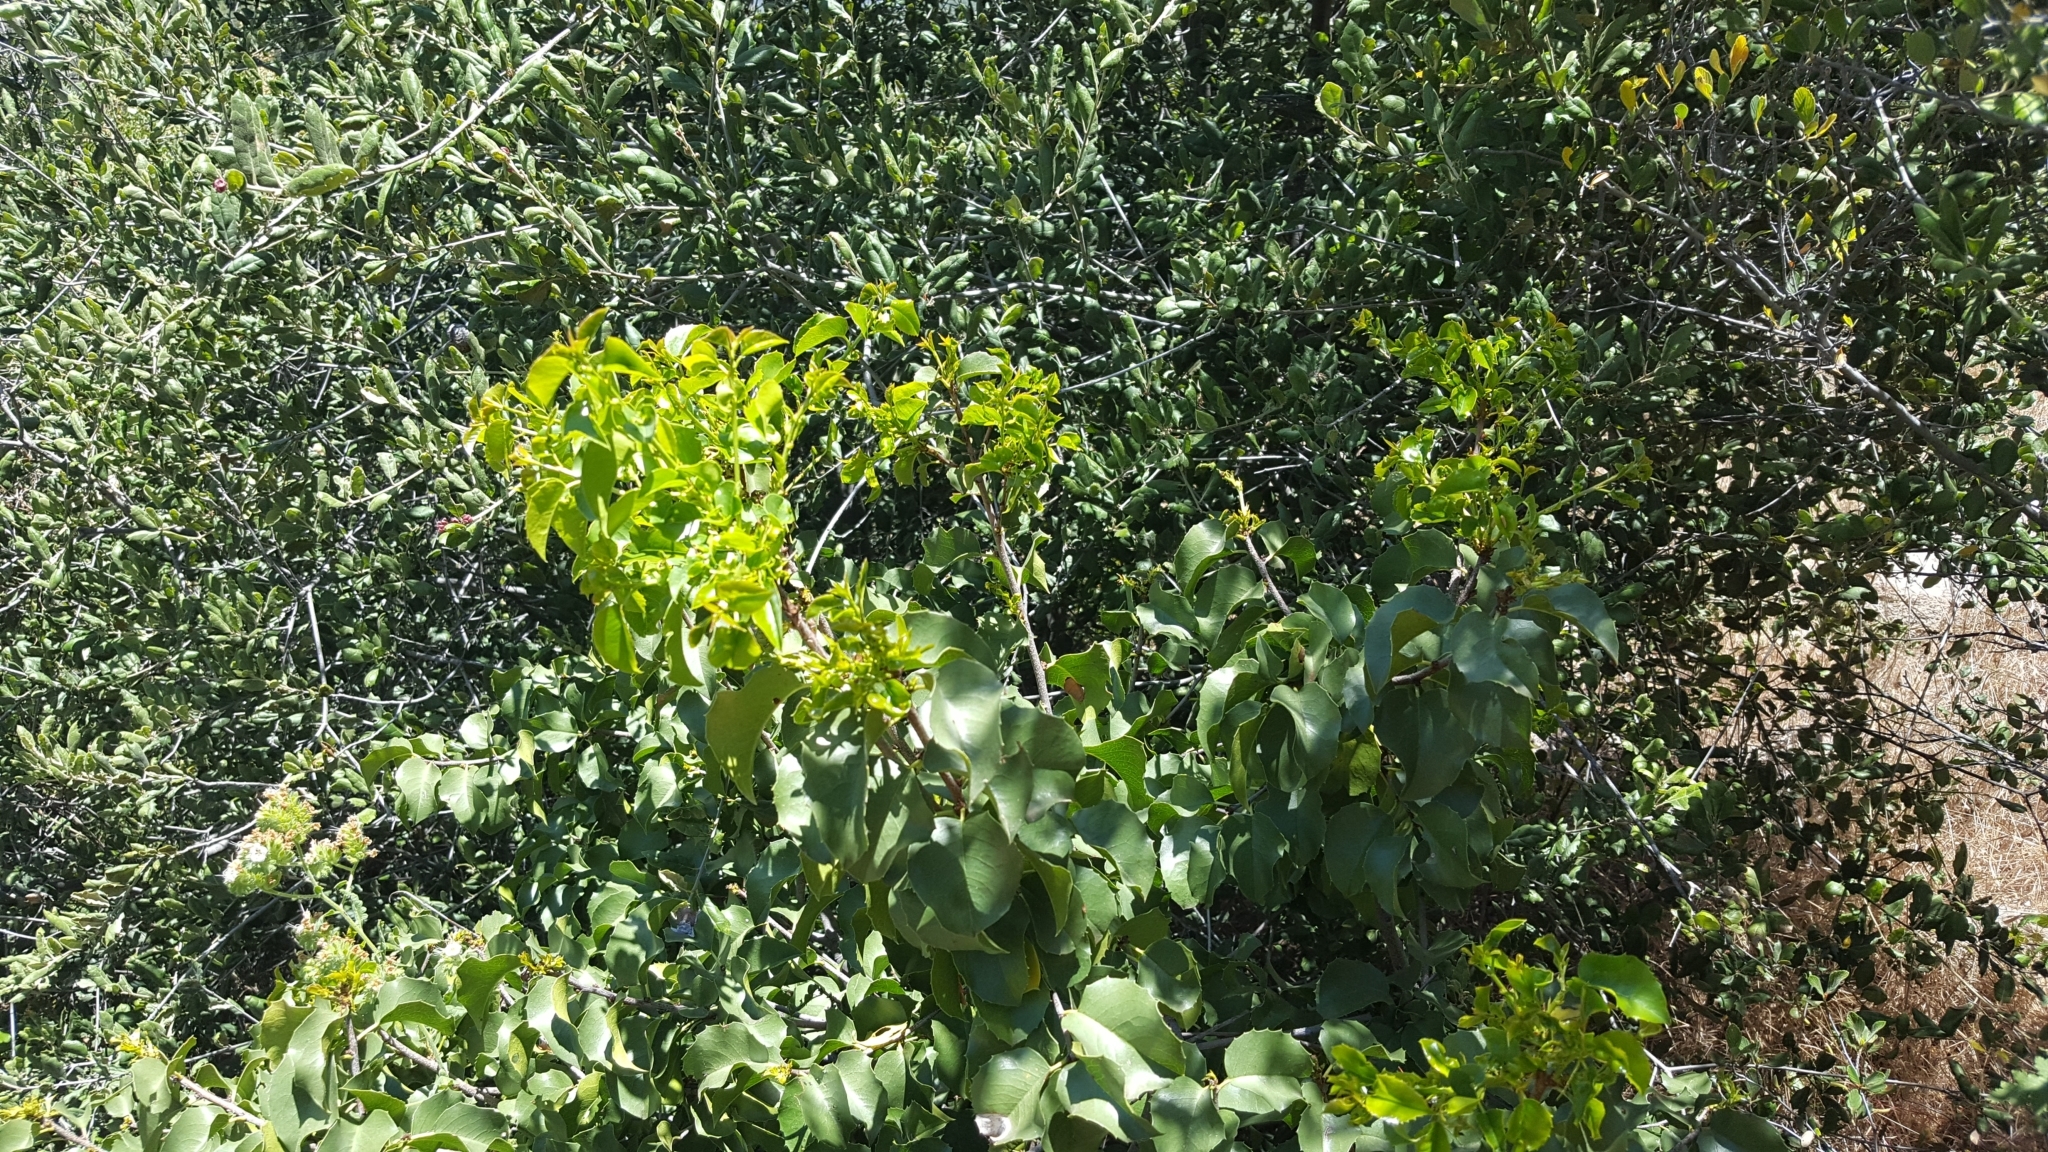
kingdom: Plantae
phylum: Tracheophyta
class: Magnoliopsida
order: Rosales
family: Rosaceae
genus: Prunus
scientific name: Prunus ilicifolia
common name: Hollyleaf cherry
